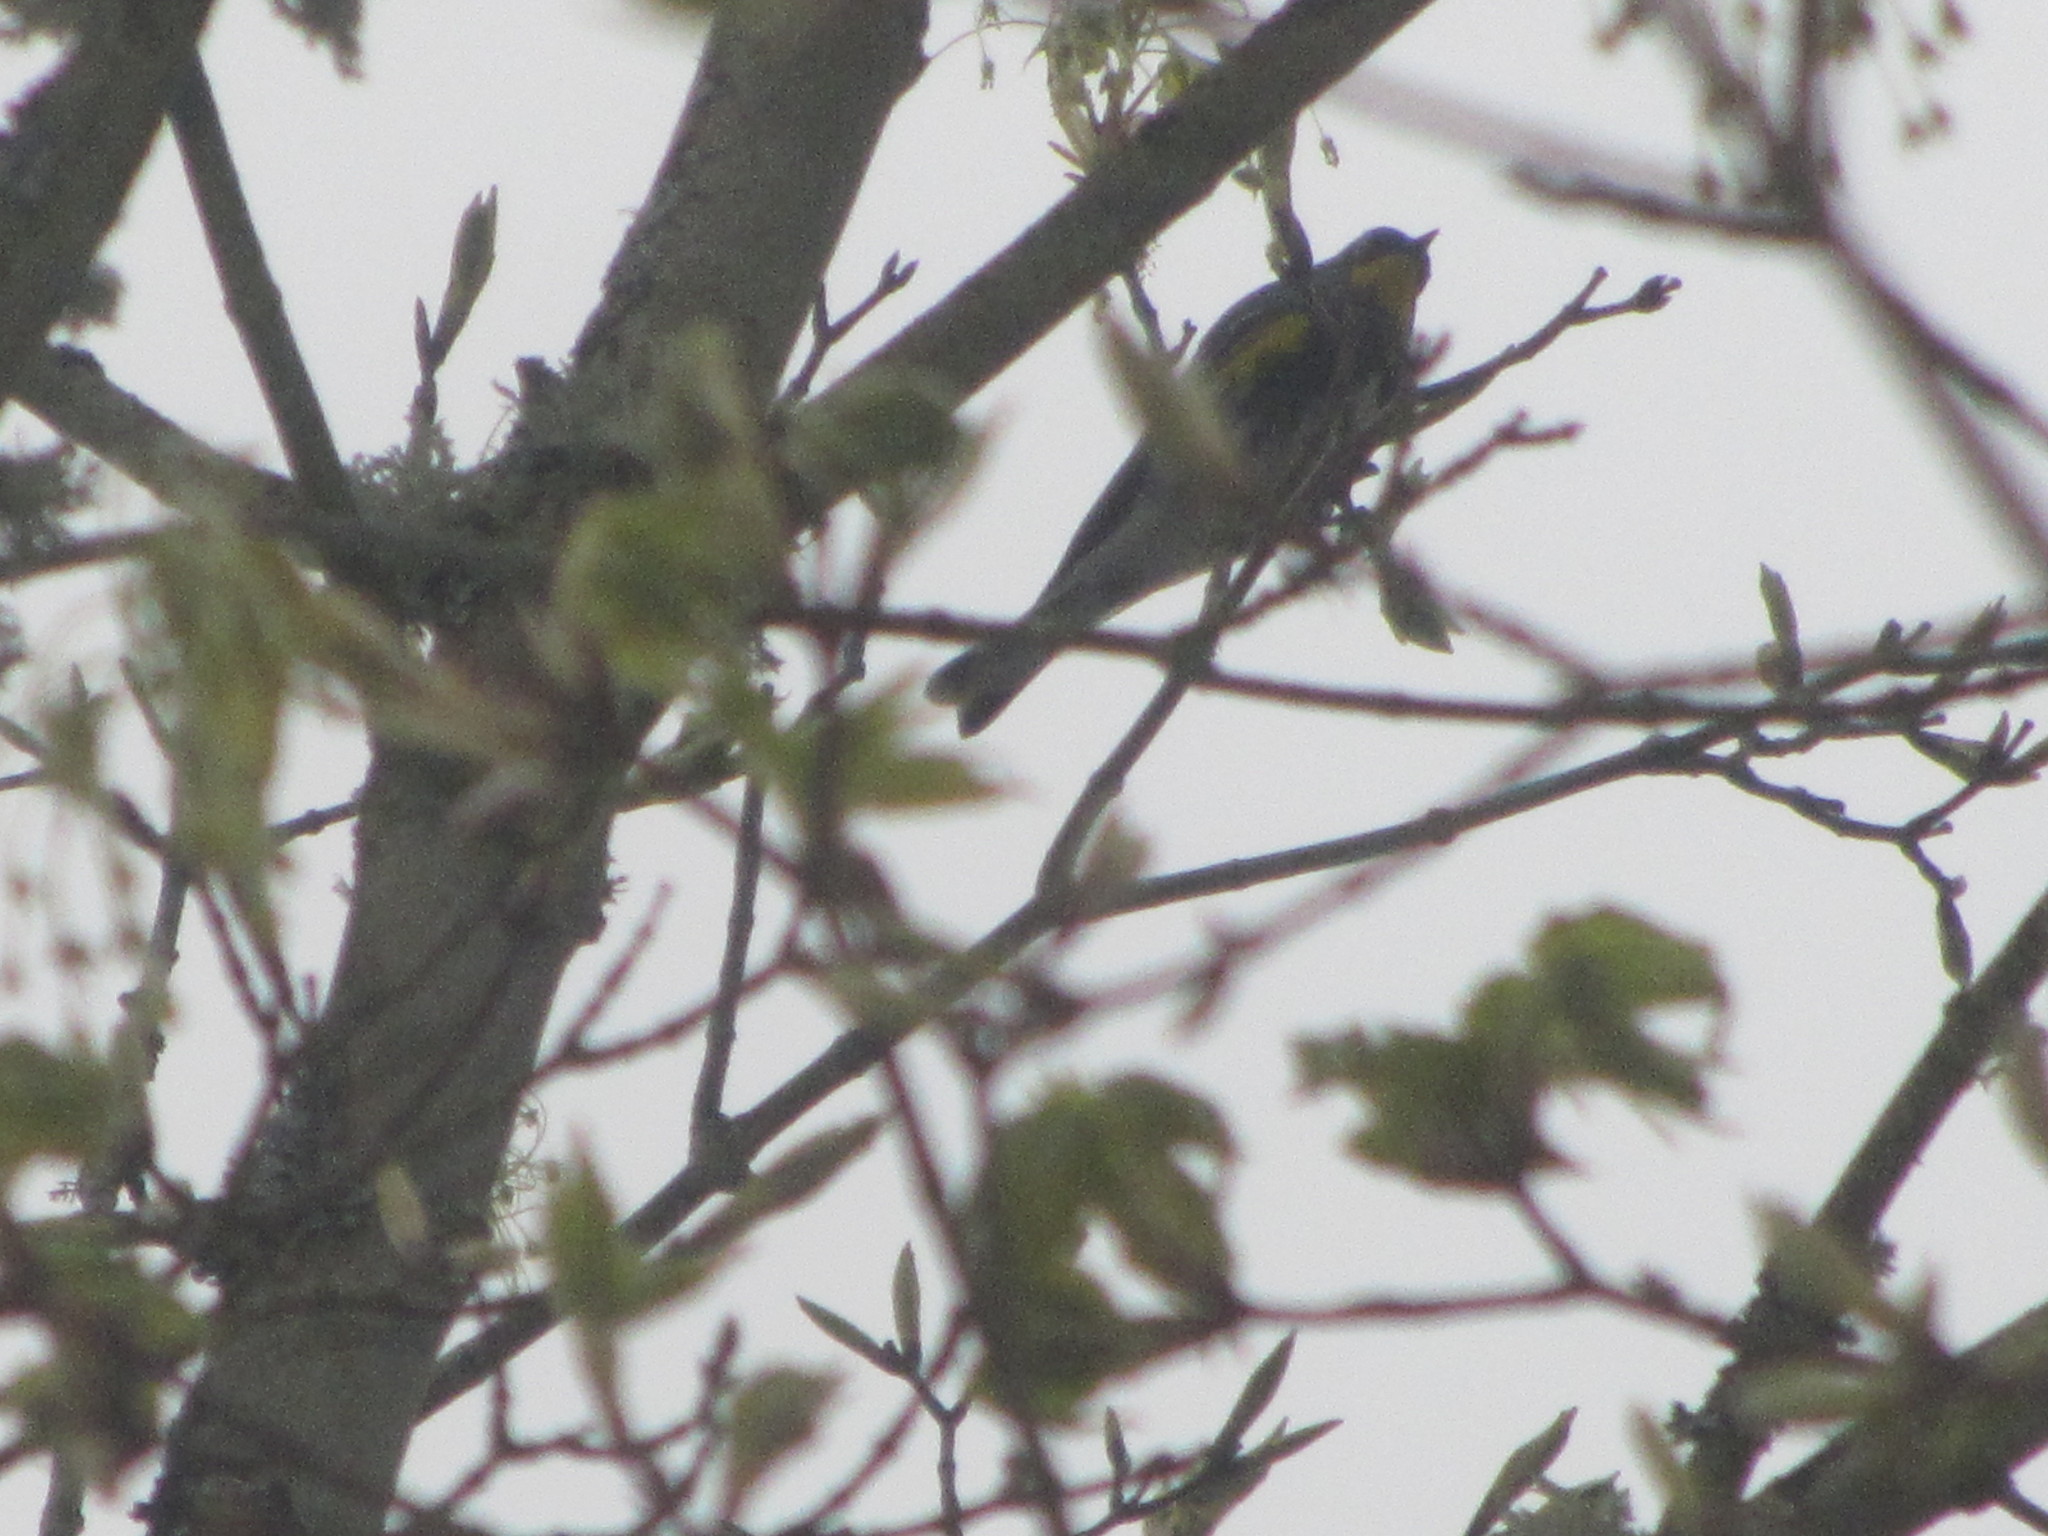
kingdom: Animalia
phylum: Chordata
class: Aves
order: Passeriformes
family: Parulidae
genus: Setophaga
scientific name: Setophaga coronata
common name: Myrtle warbler
